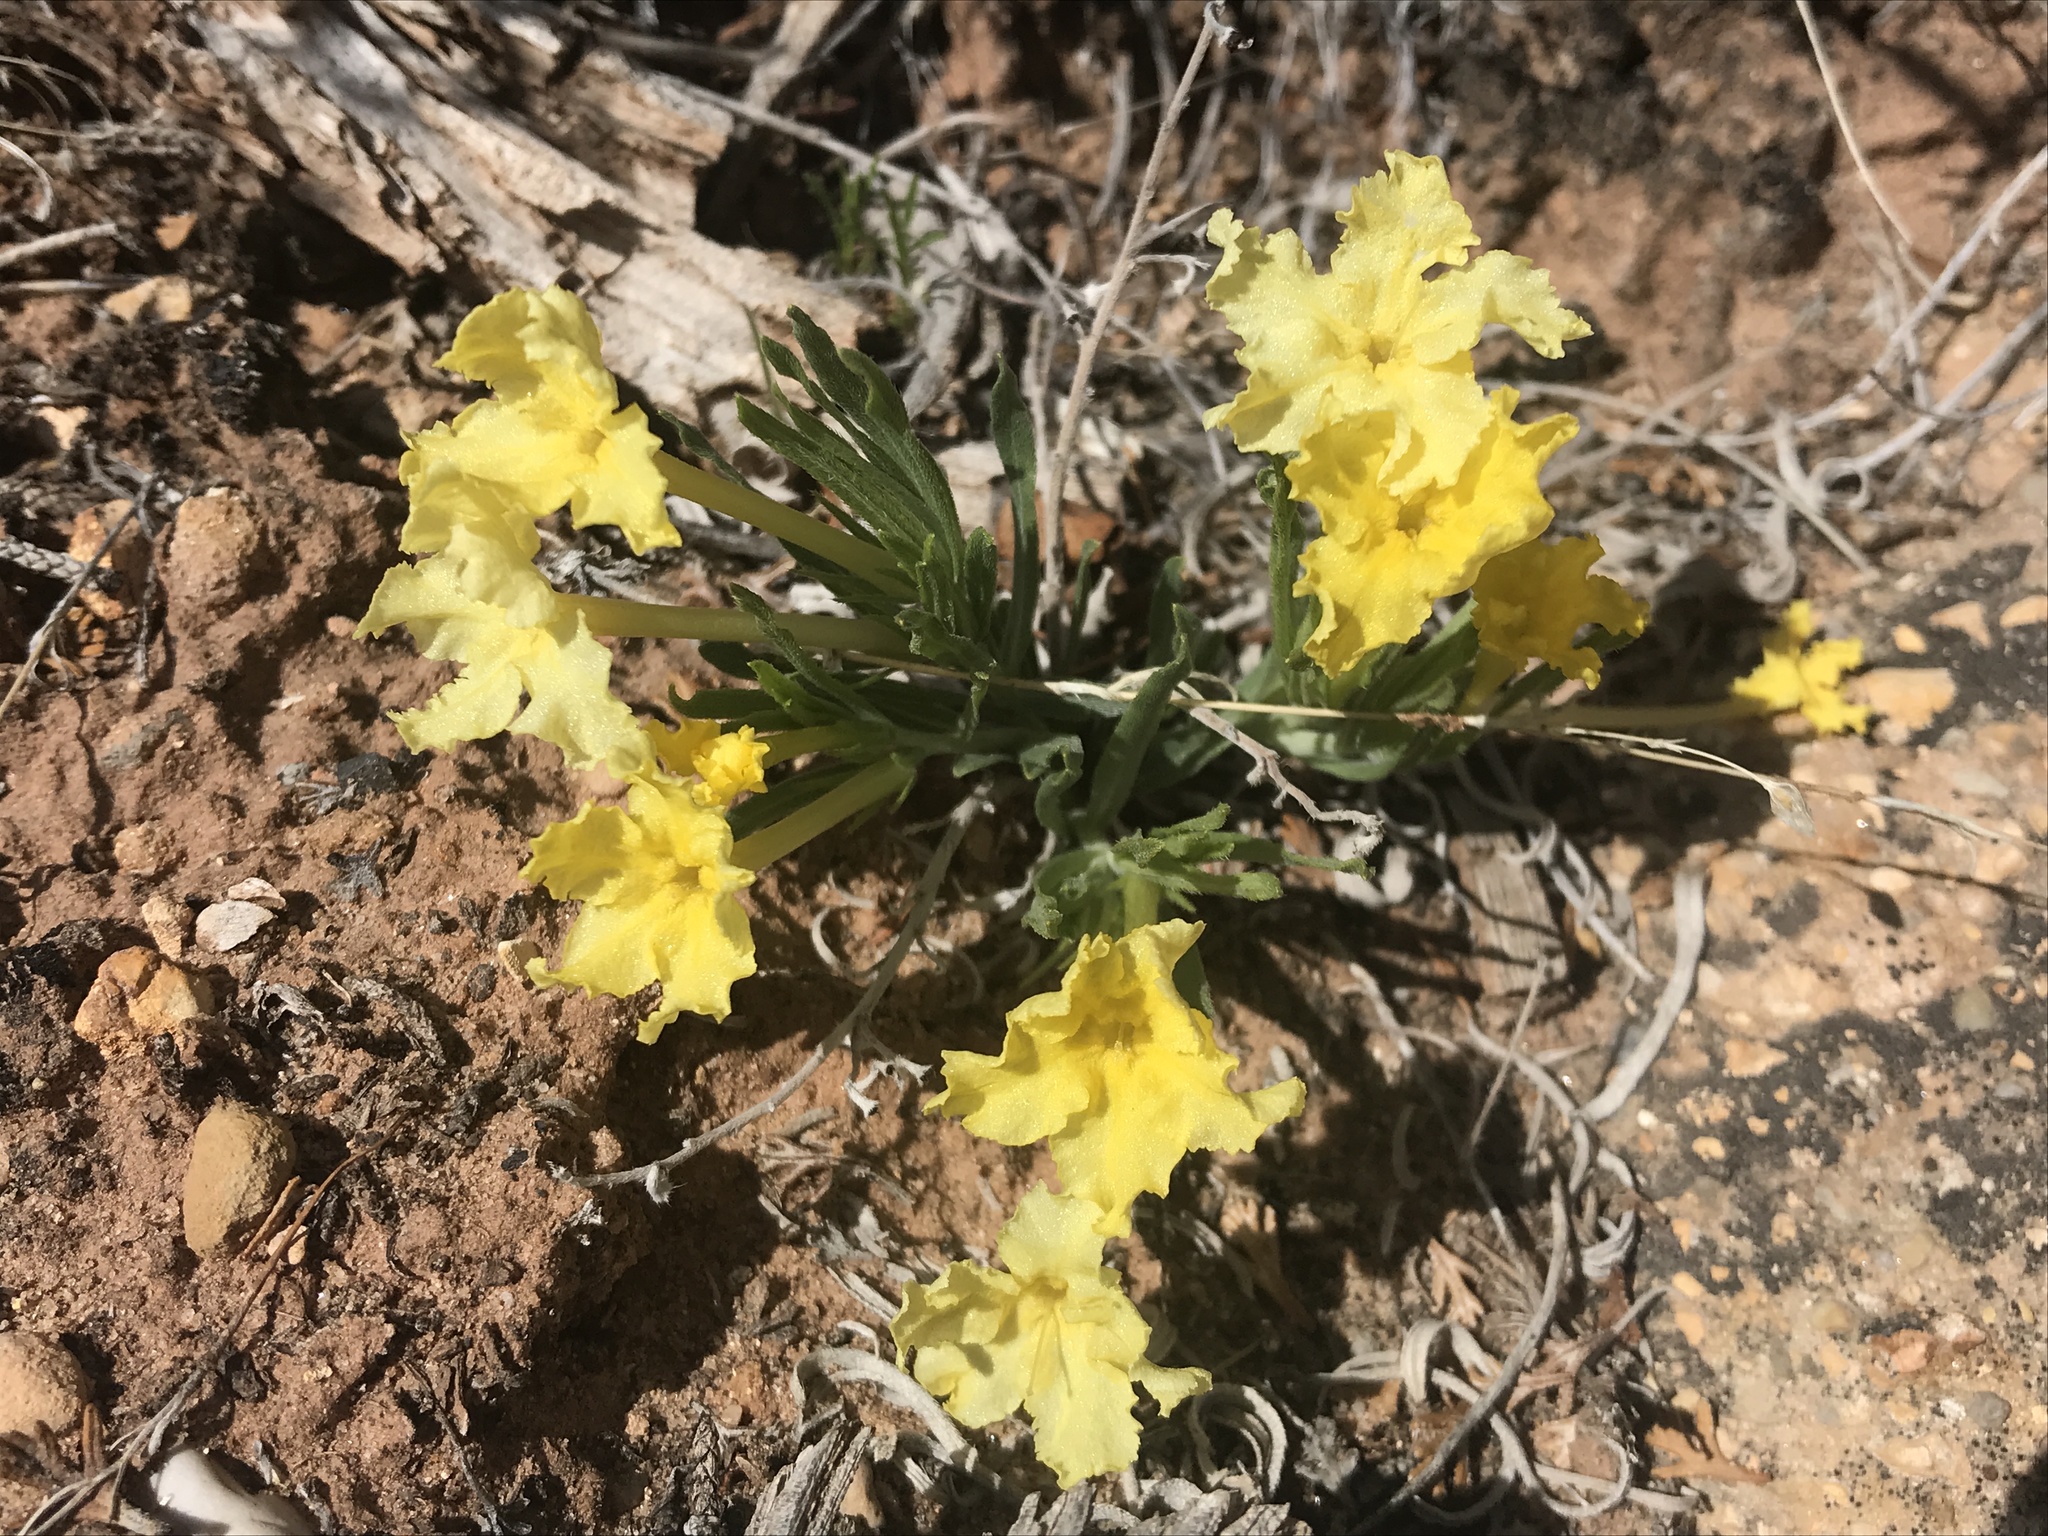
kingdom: Plantae
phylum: Tracheophyta
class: Magnoliopsida
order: Boraginales
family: Boraginaceae
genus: Lithospermum
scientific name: Lithospermum incisum
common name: Fringed gromwell
